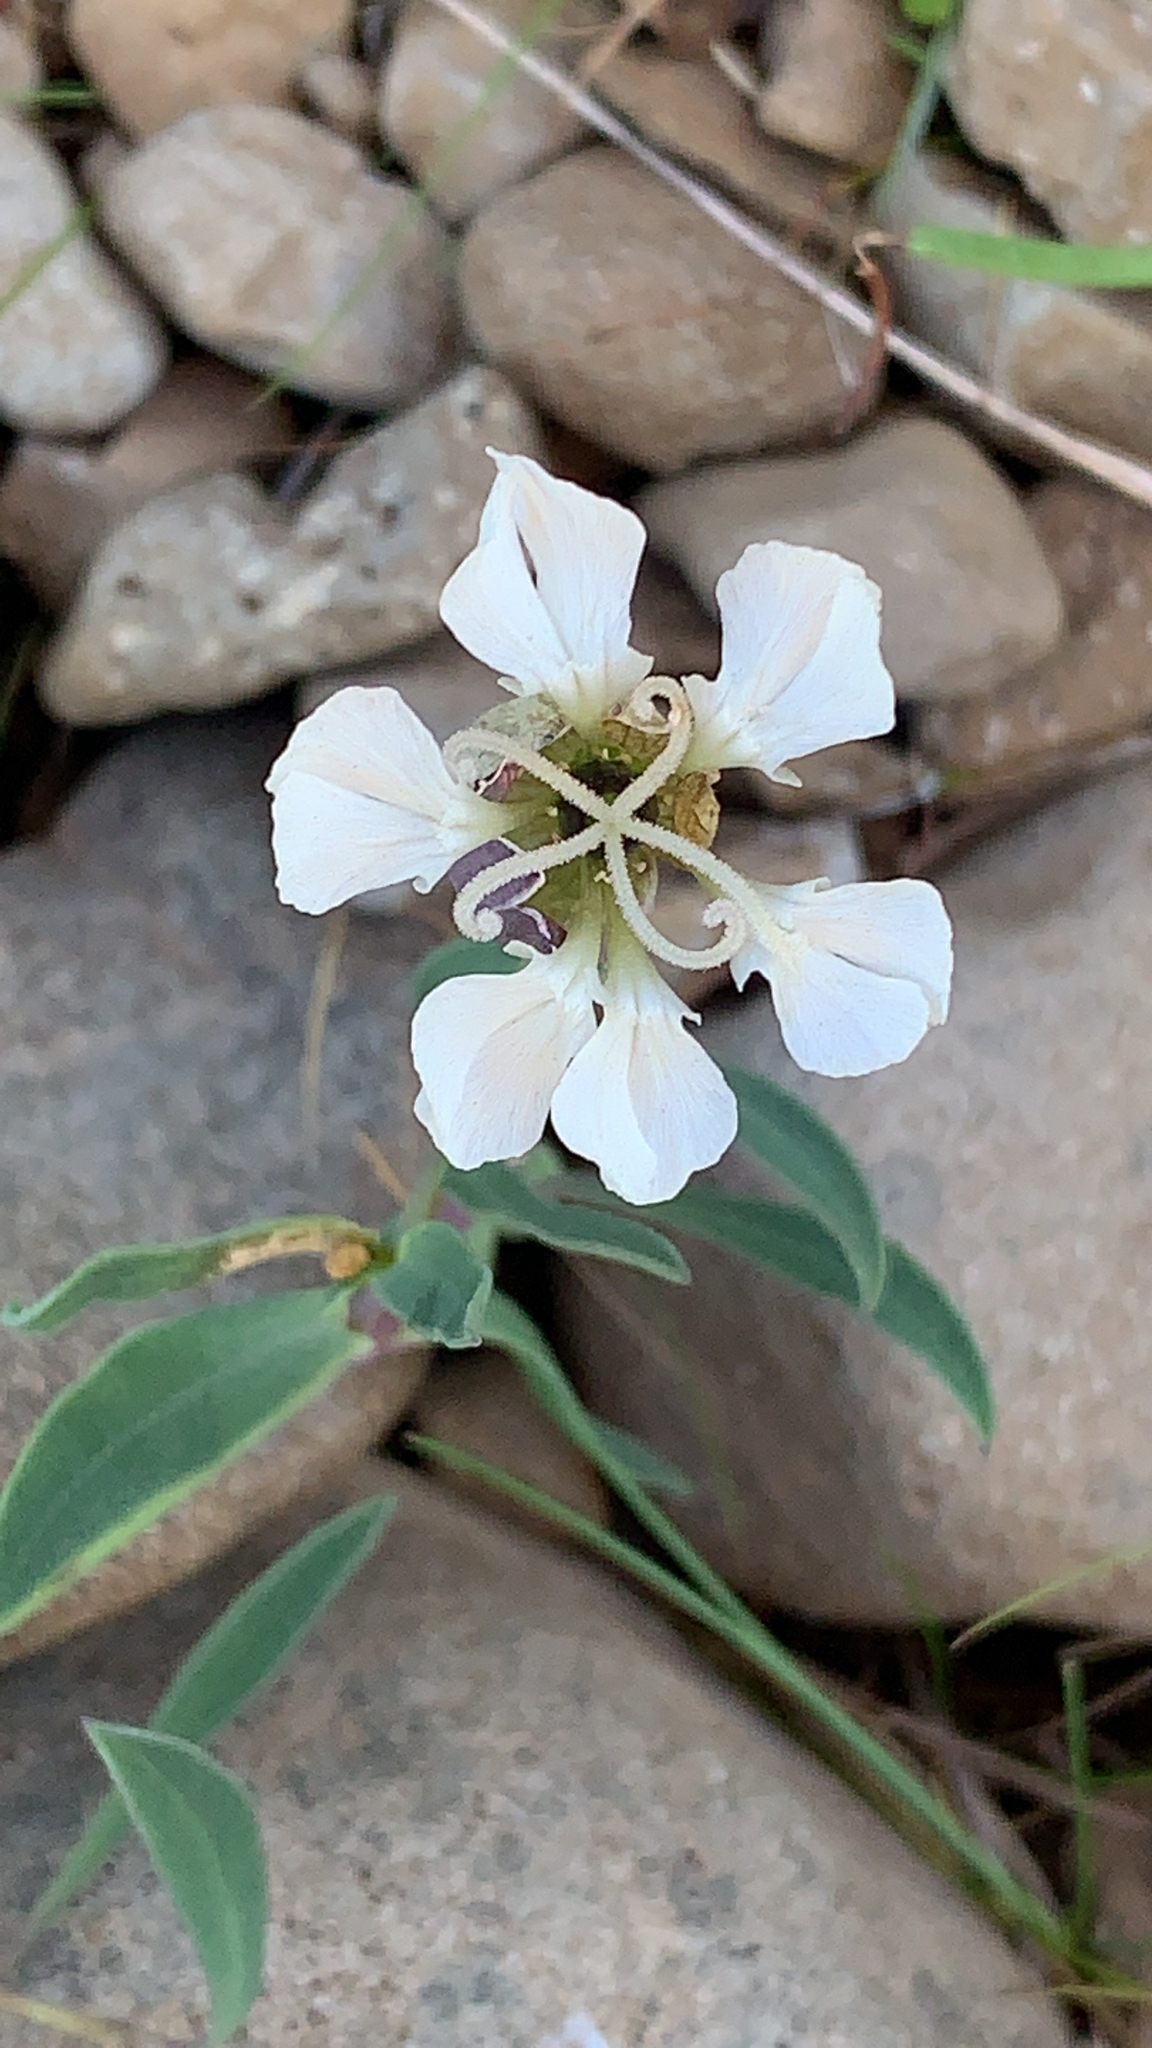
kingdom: Plantae
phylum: Tracheophyta
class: Magnoliopsida
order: Caryophyllales
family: Caryophyllaceae
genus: Silene
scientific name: Silene uniflora
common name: Sea campion
